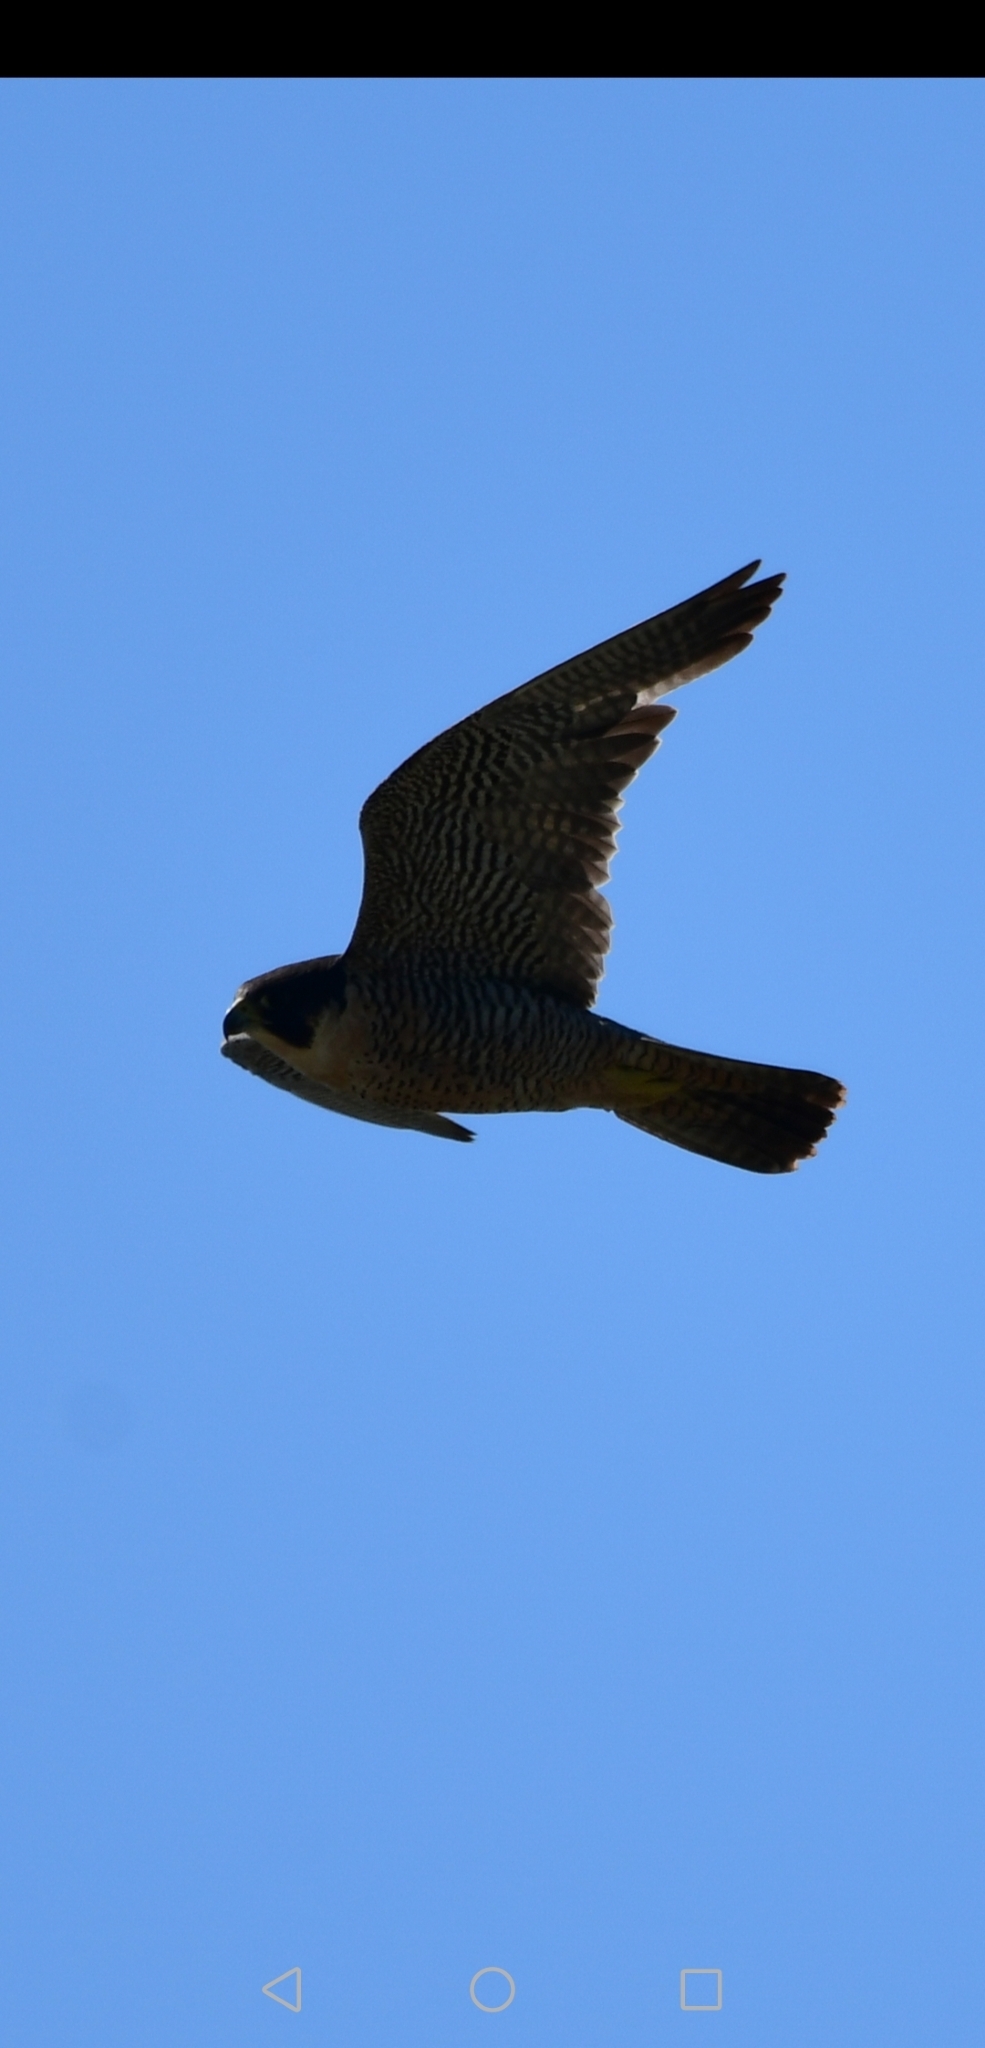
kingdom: Animalia
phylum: Chordata
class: Aves
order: Falconiformes
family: Falconidae
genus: Falco
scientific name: Falco peregrinus
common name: Peregrine falcon
